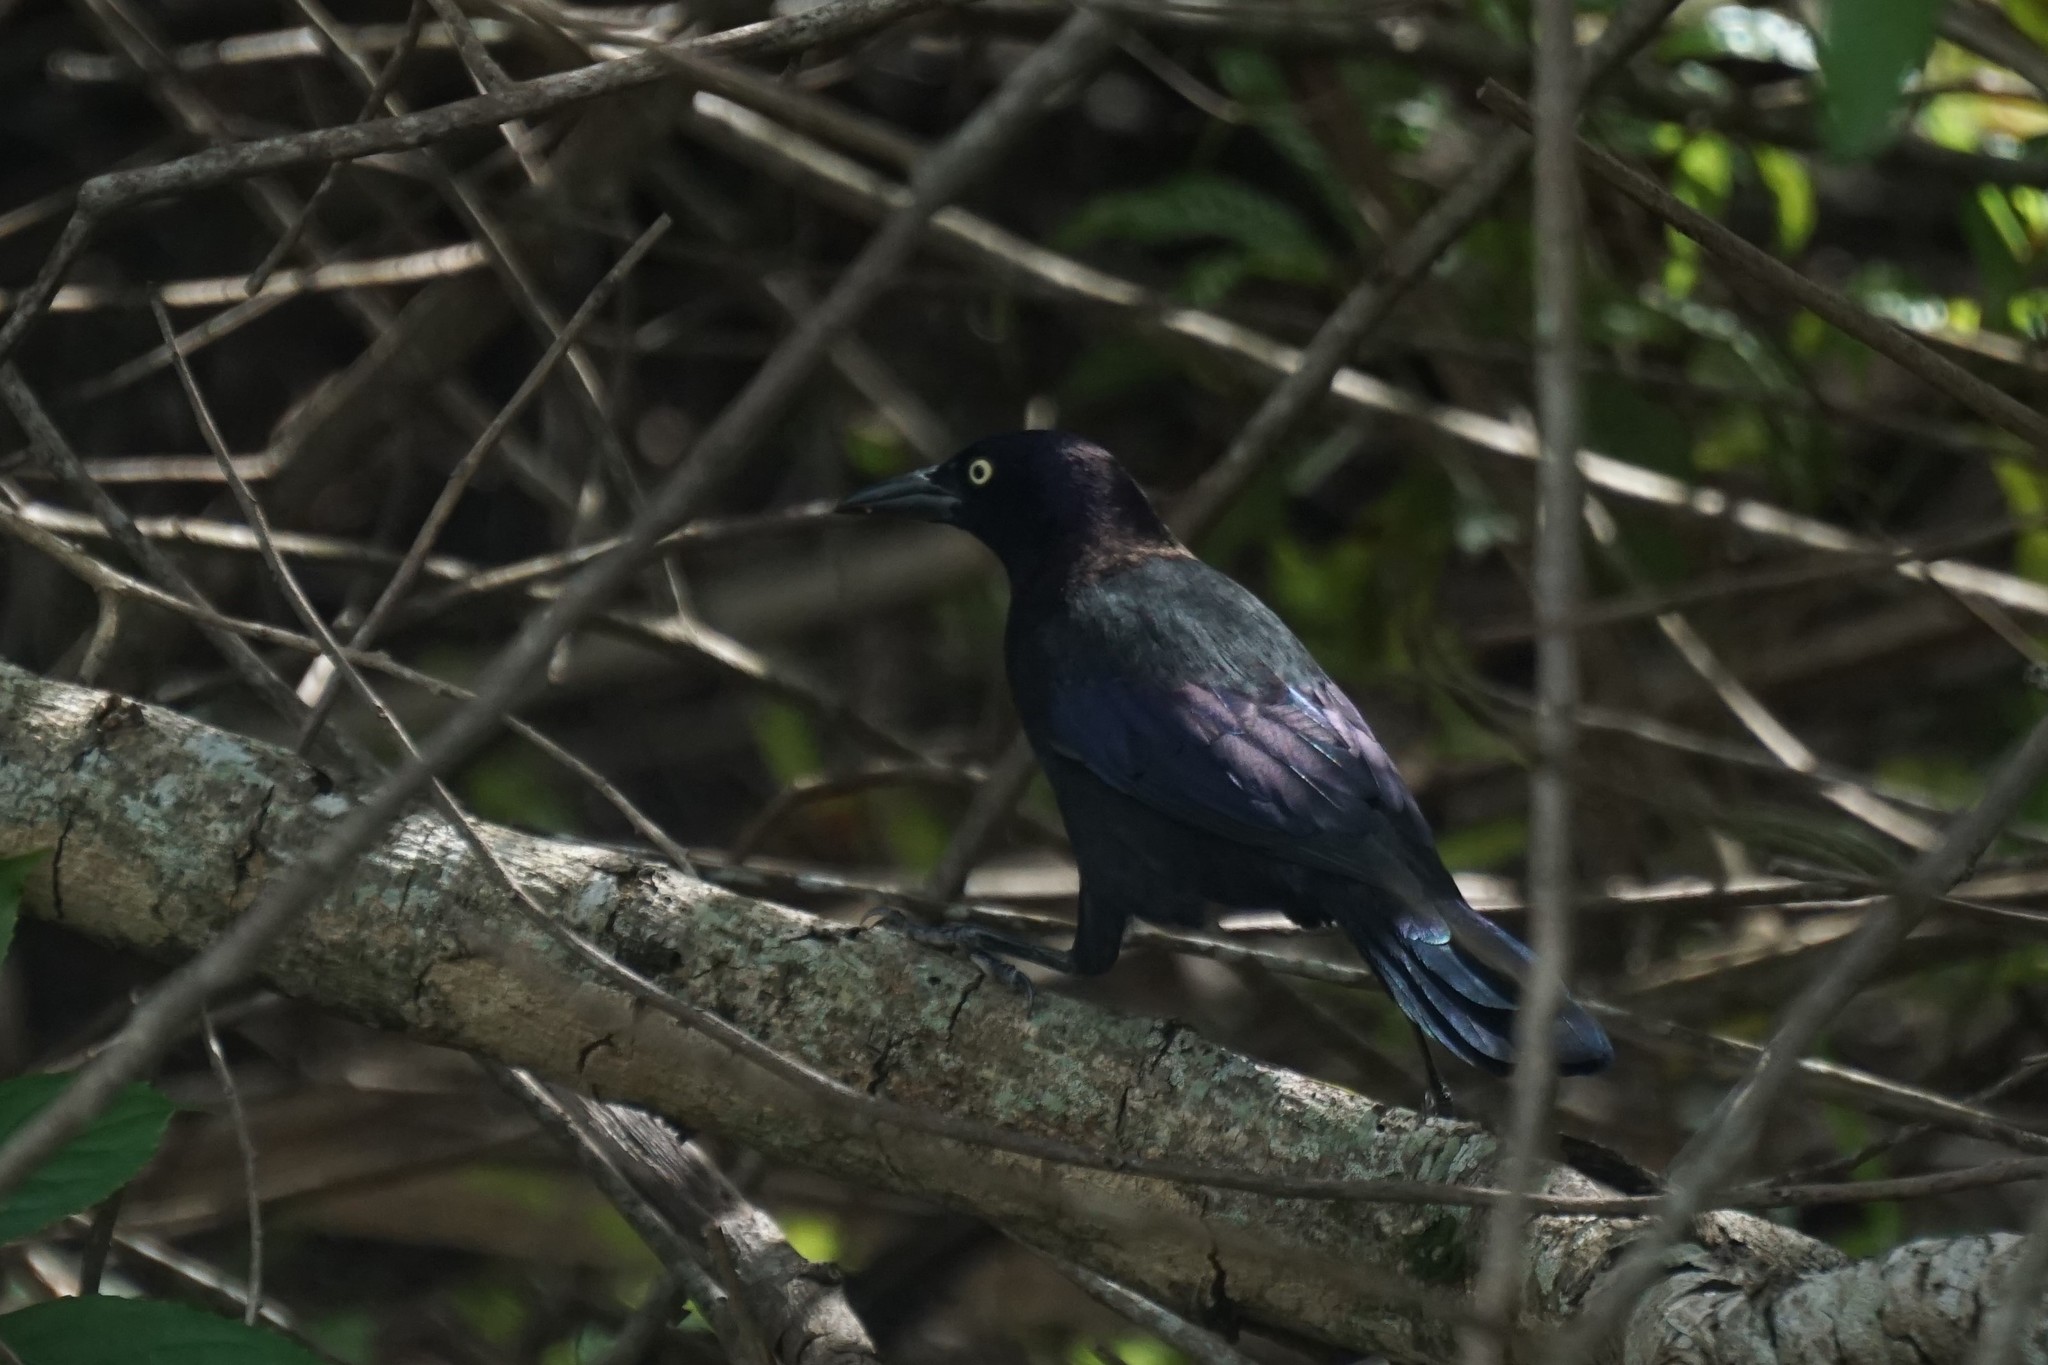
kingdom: Animalia
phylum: Chordata
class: Aves
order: Passeriformes
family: Icteridae
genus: Quiscalus
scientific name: Quiscalus quiscula
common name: Common grackle
